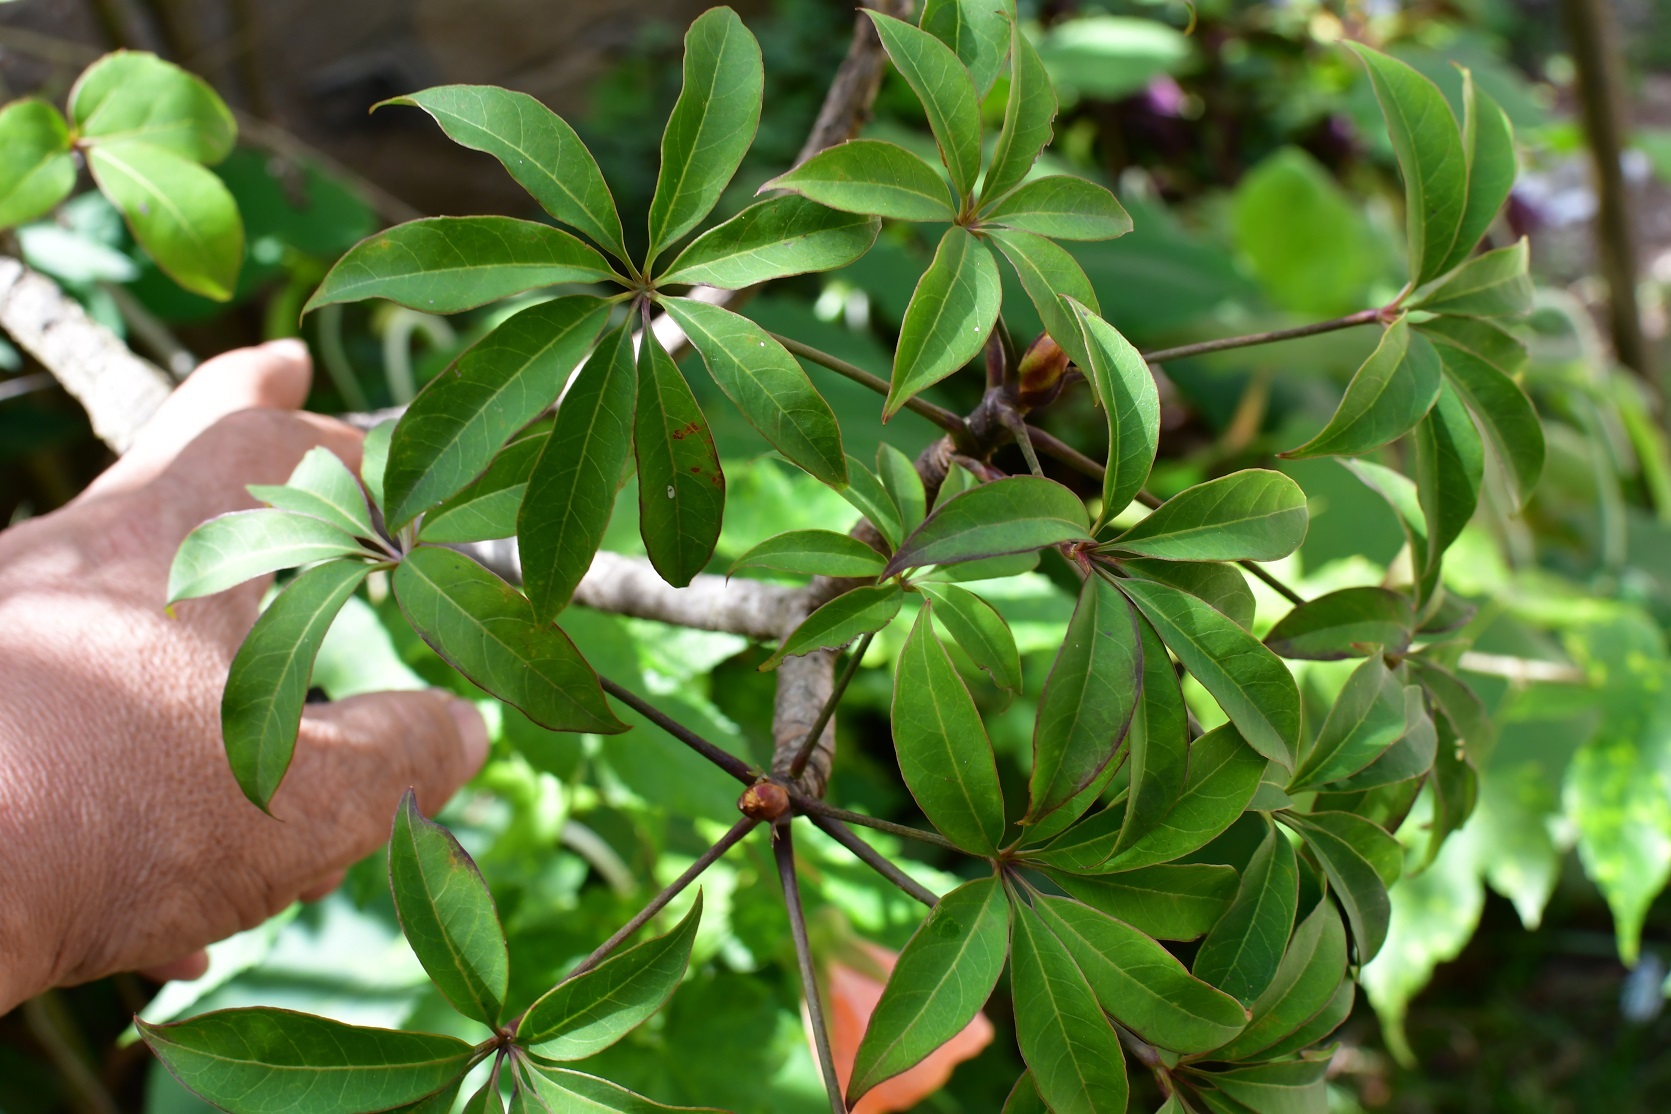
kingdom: Plantae
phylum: Tracheophyta
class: Magnoliopsida
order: Apiales
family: Araliaceae
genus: Oreopanax
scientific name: Oreopanax xalapensis
